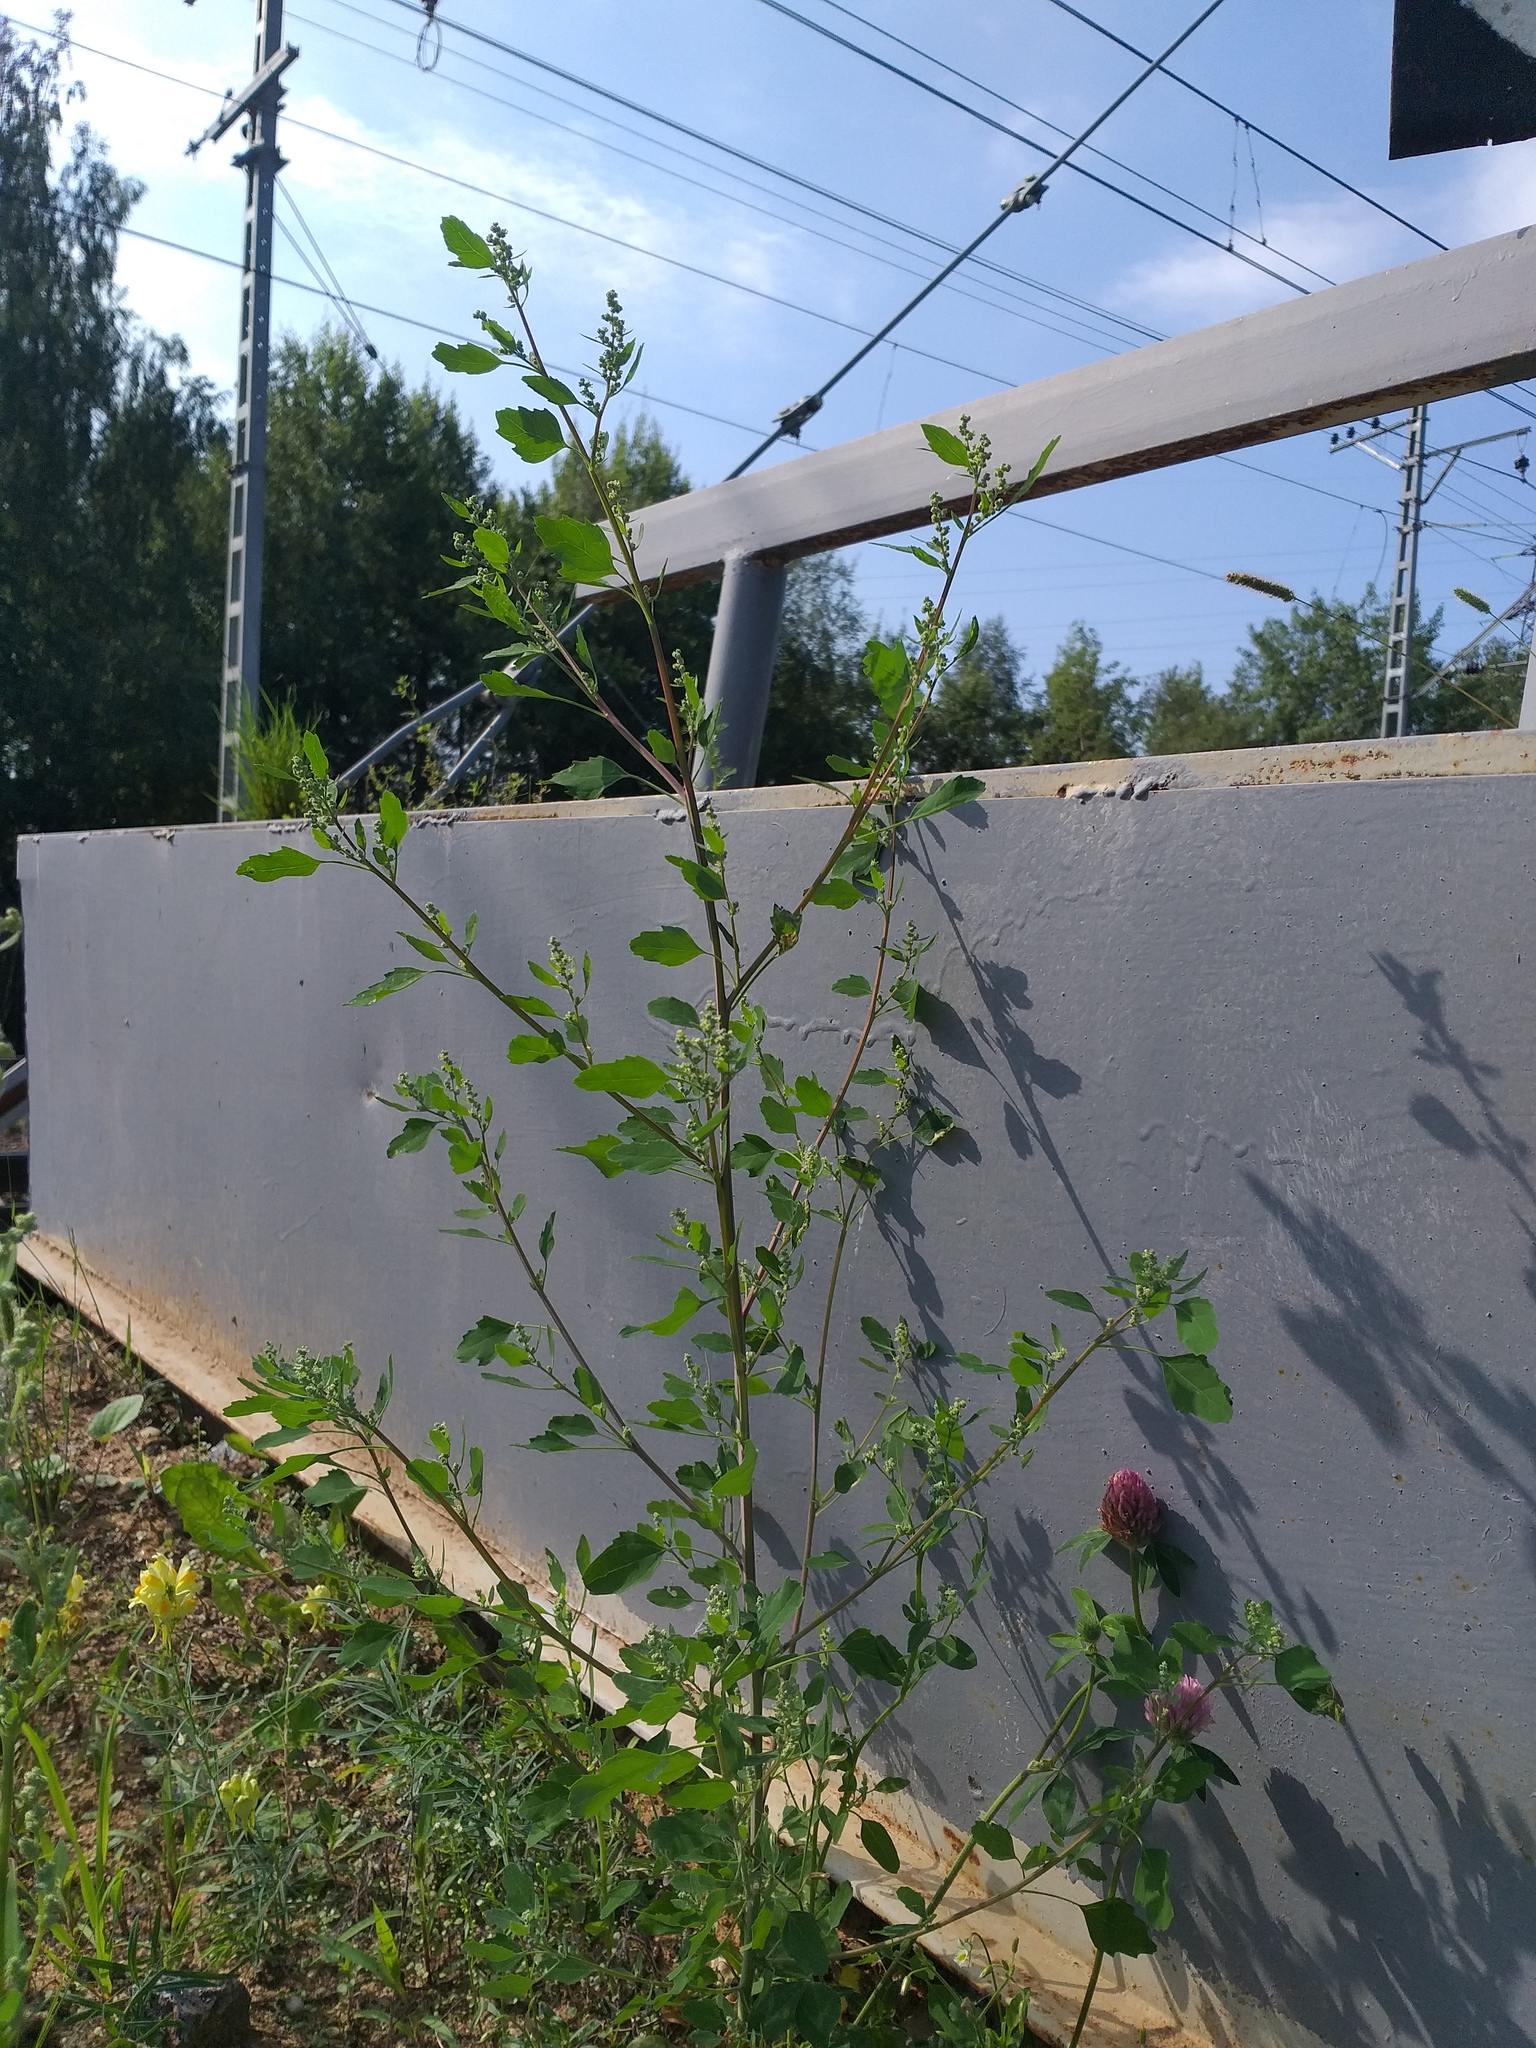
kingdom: Plantae
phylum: Tracheophyta
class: Magnoliopsida
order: Caryophyllales
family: Amaranthaceae
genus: Chenopodium
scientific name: Chenopodium album
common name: Fat-hen
